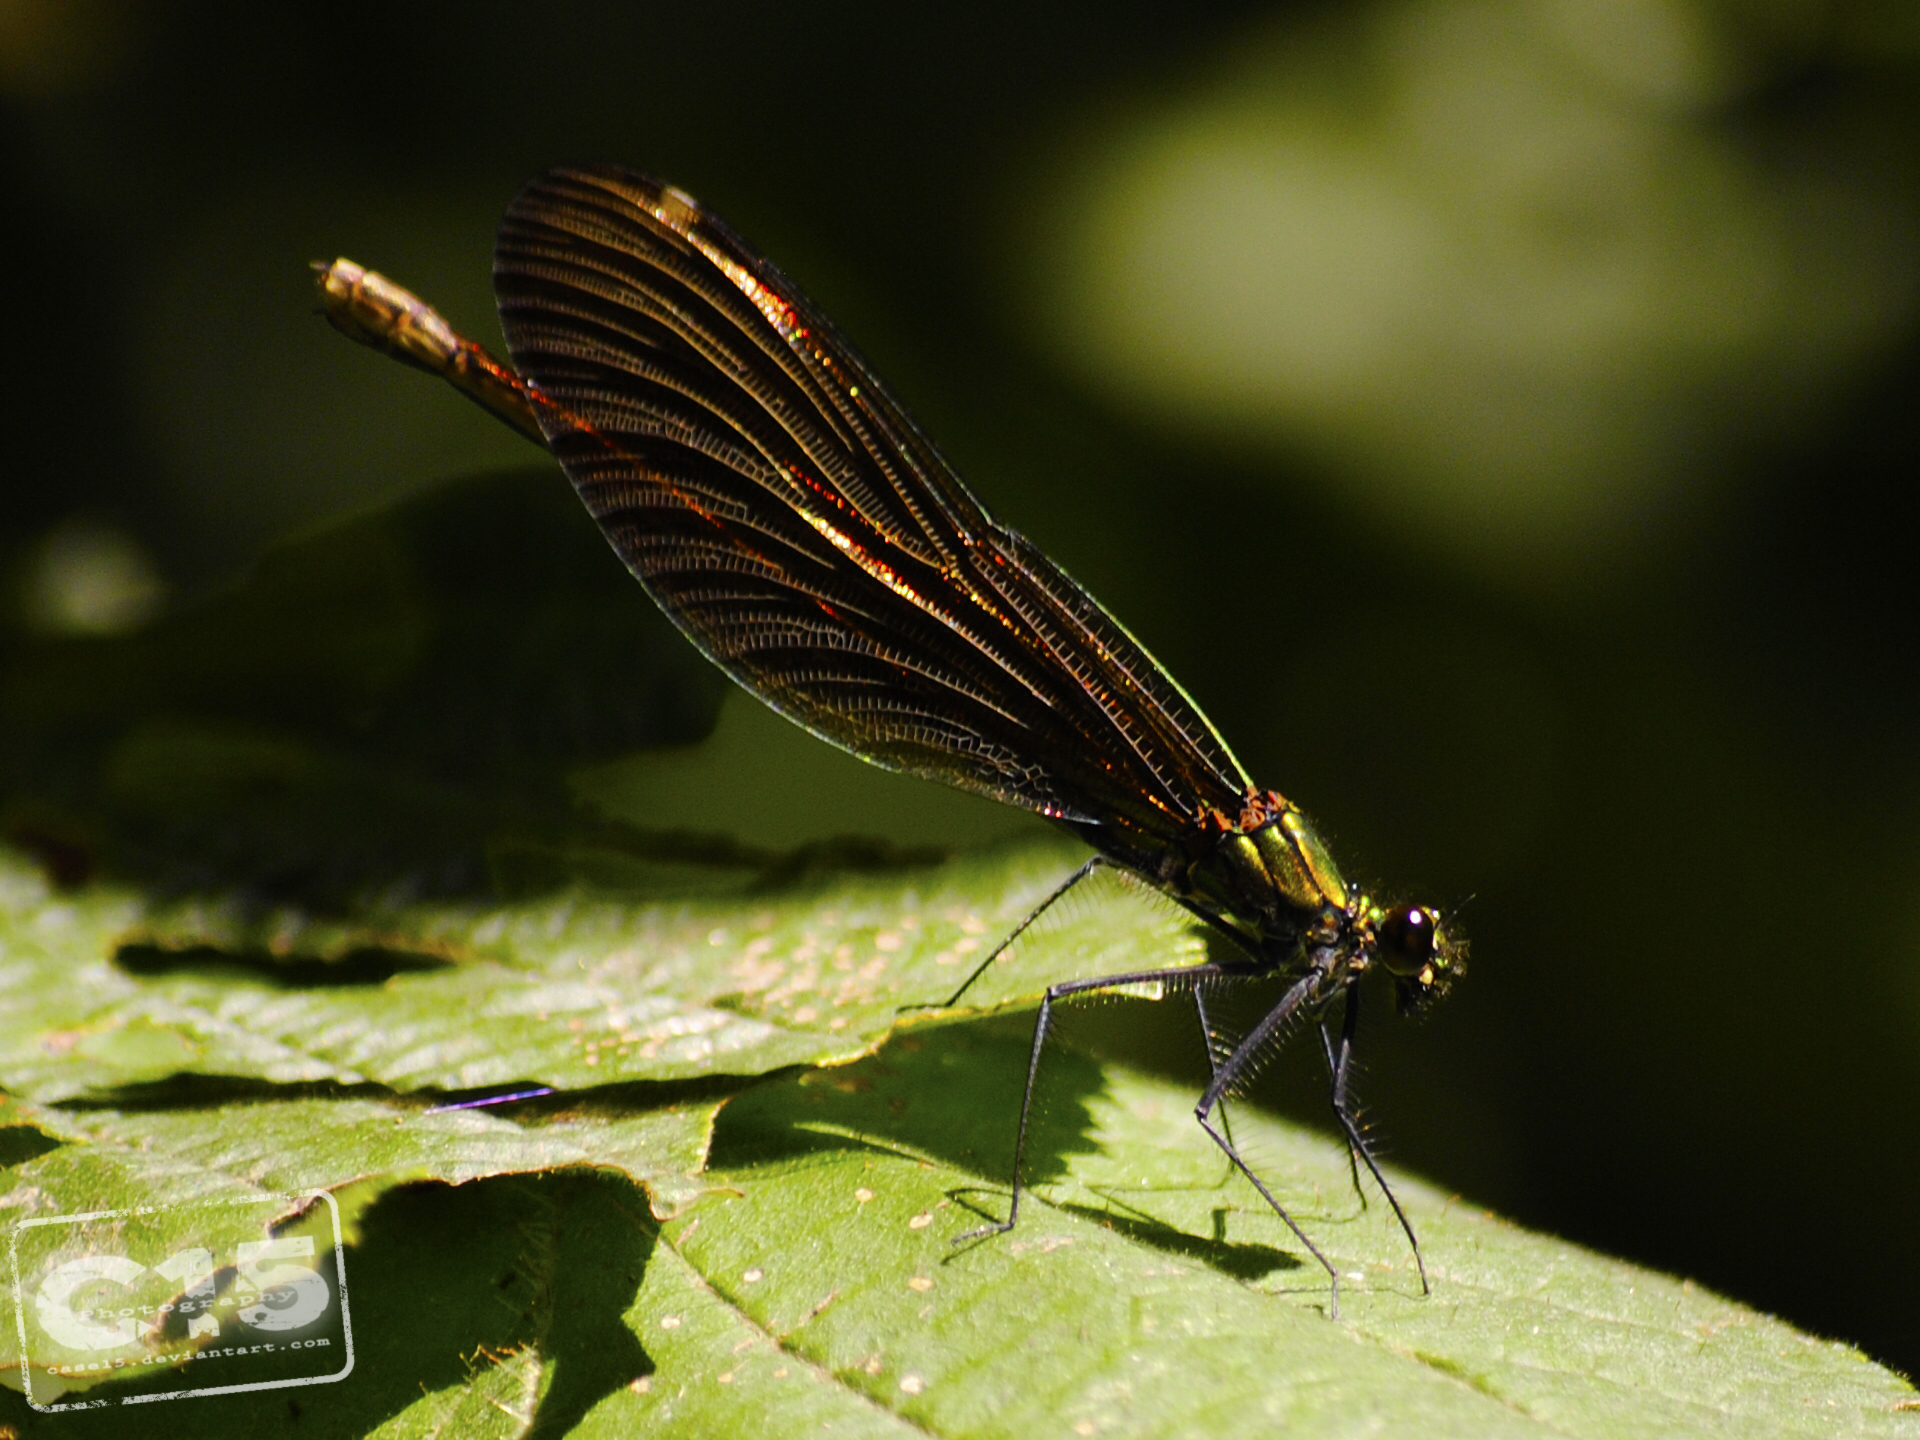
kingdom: Animalia
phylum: Arthropoda
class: Insecta
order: Odonata
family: Calopterygidae
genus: Calopteryx
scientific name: Calopteryx virgo
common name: Beautiful demoiselle
